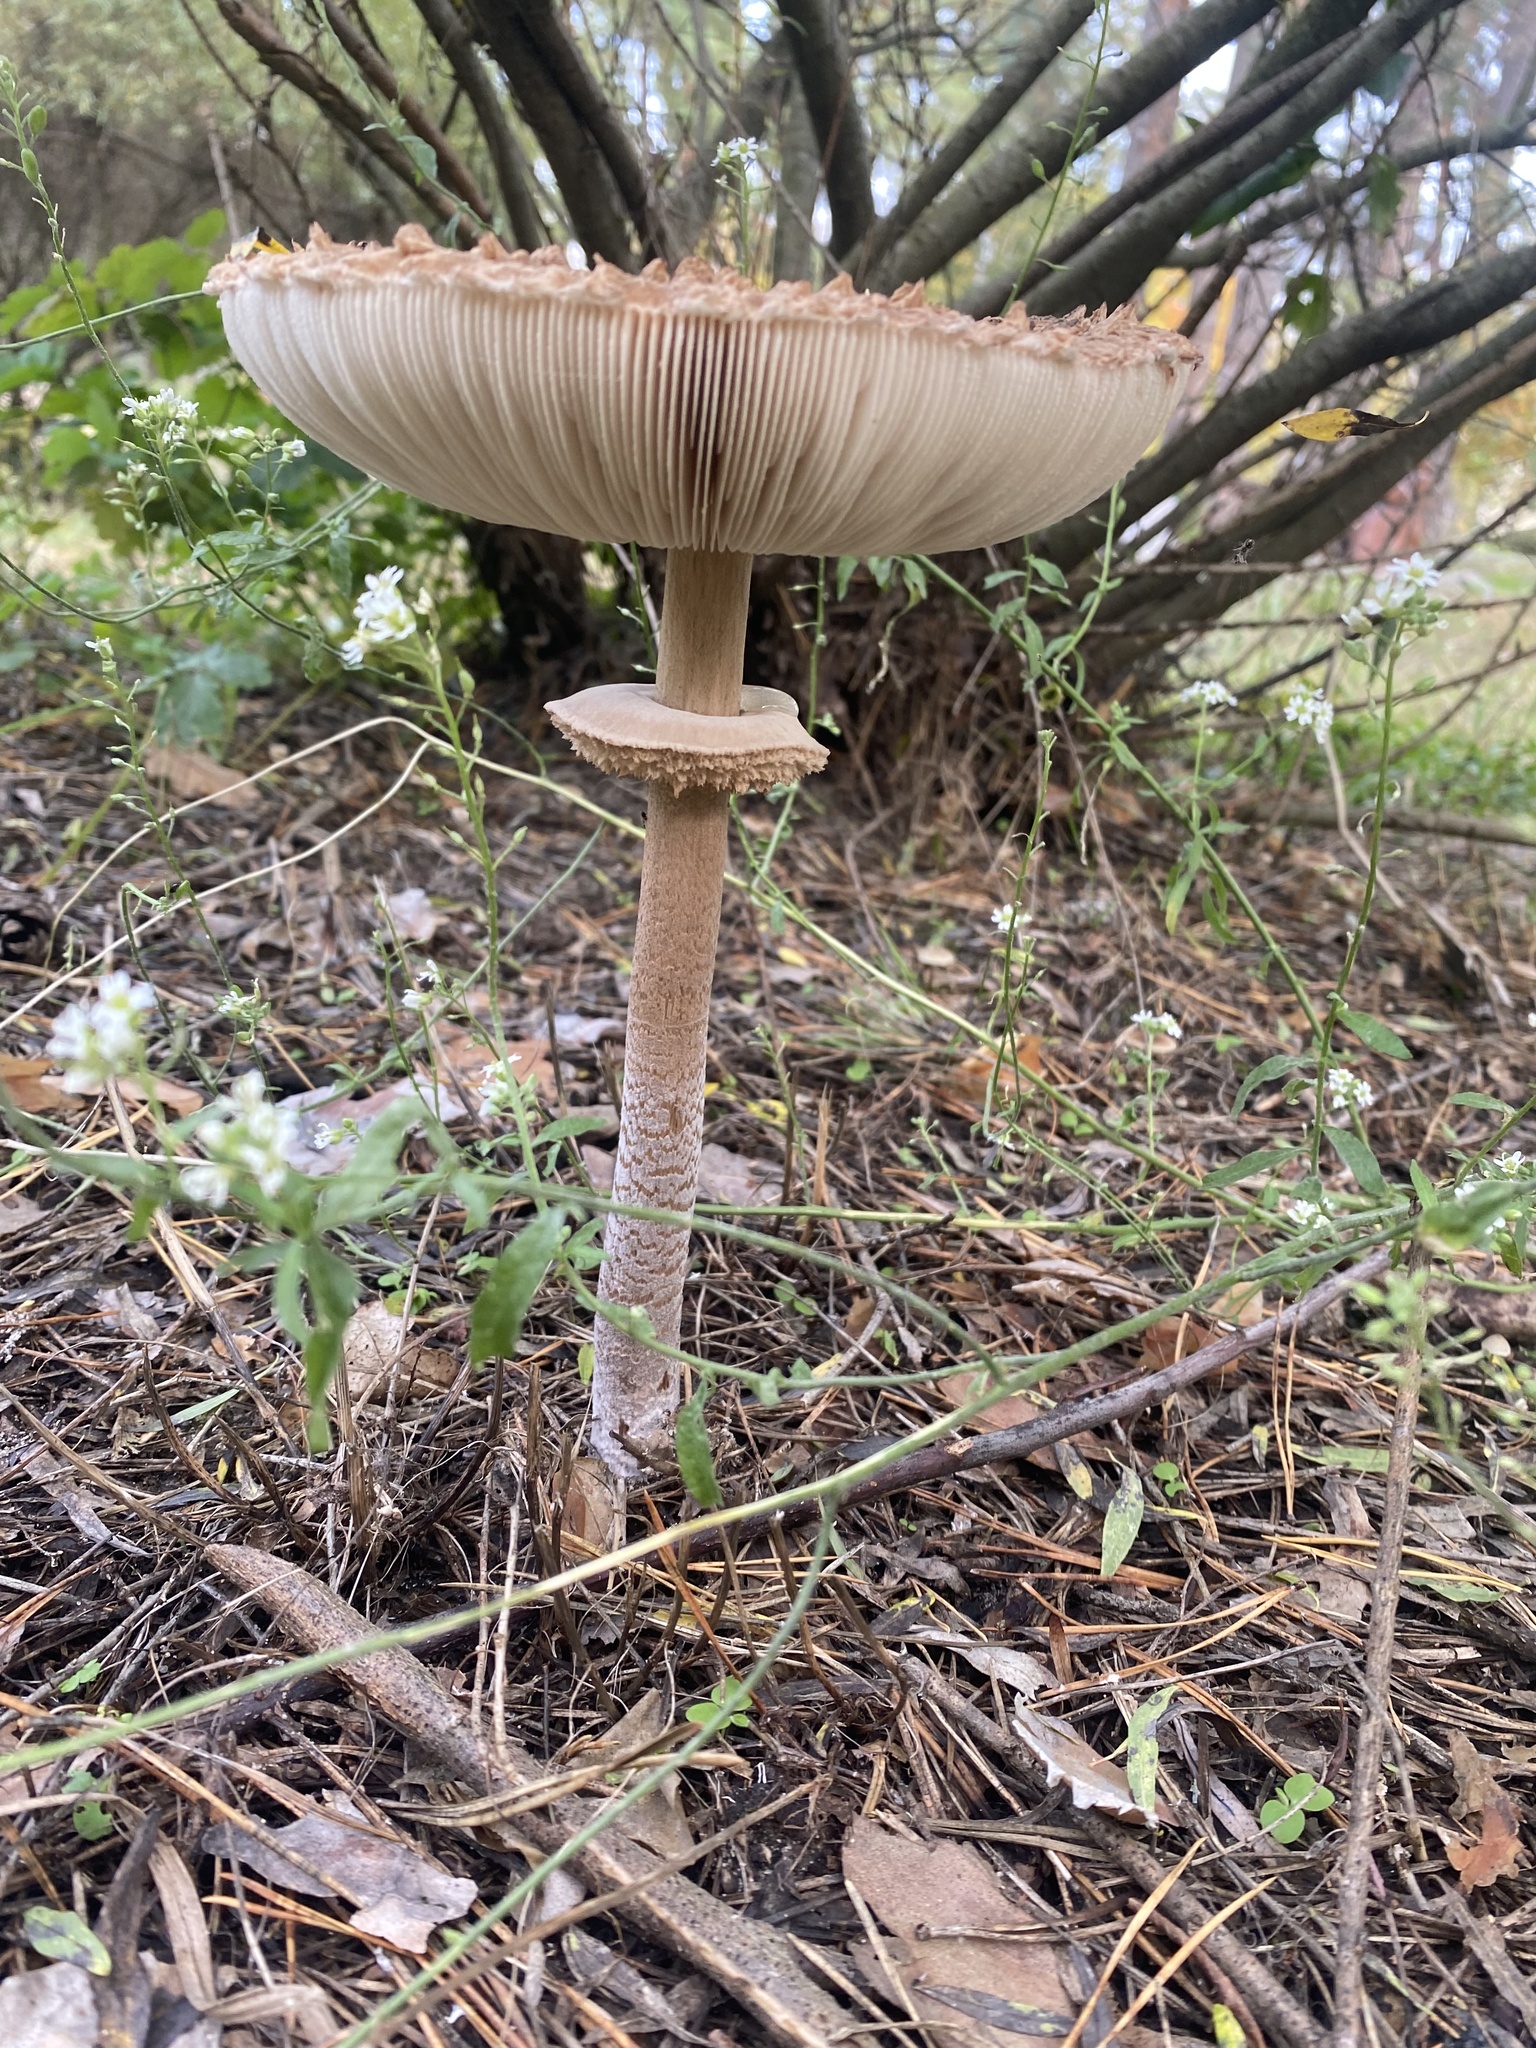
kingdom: Fungi
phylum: Basidiomycota
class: Agaricomycetes
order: Agaricales
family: Agaricaceae
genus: Macrolepiota
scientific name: Macrolepiota procera
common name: Parasol
